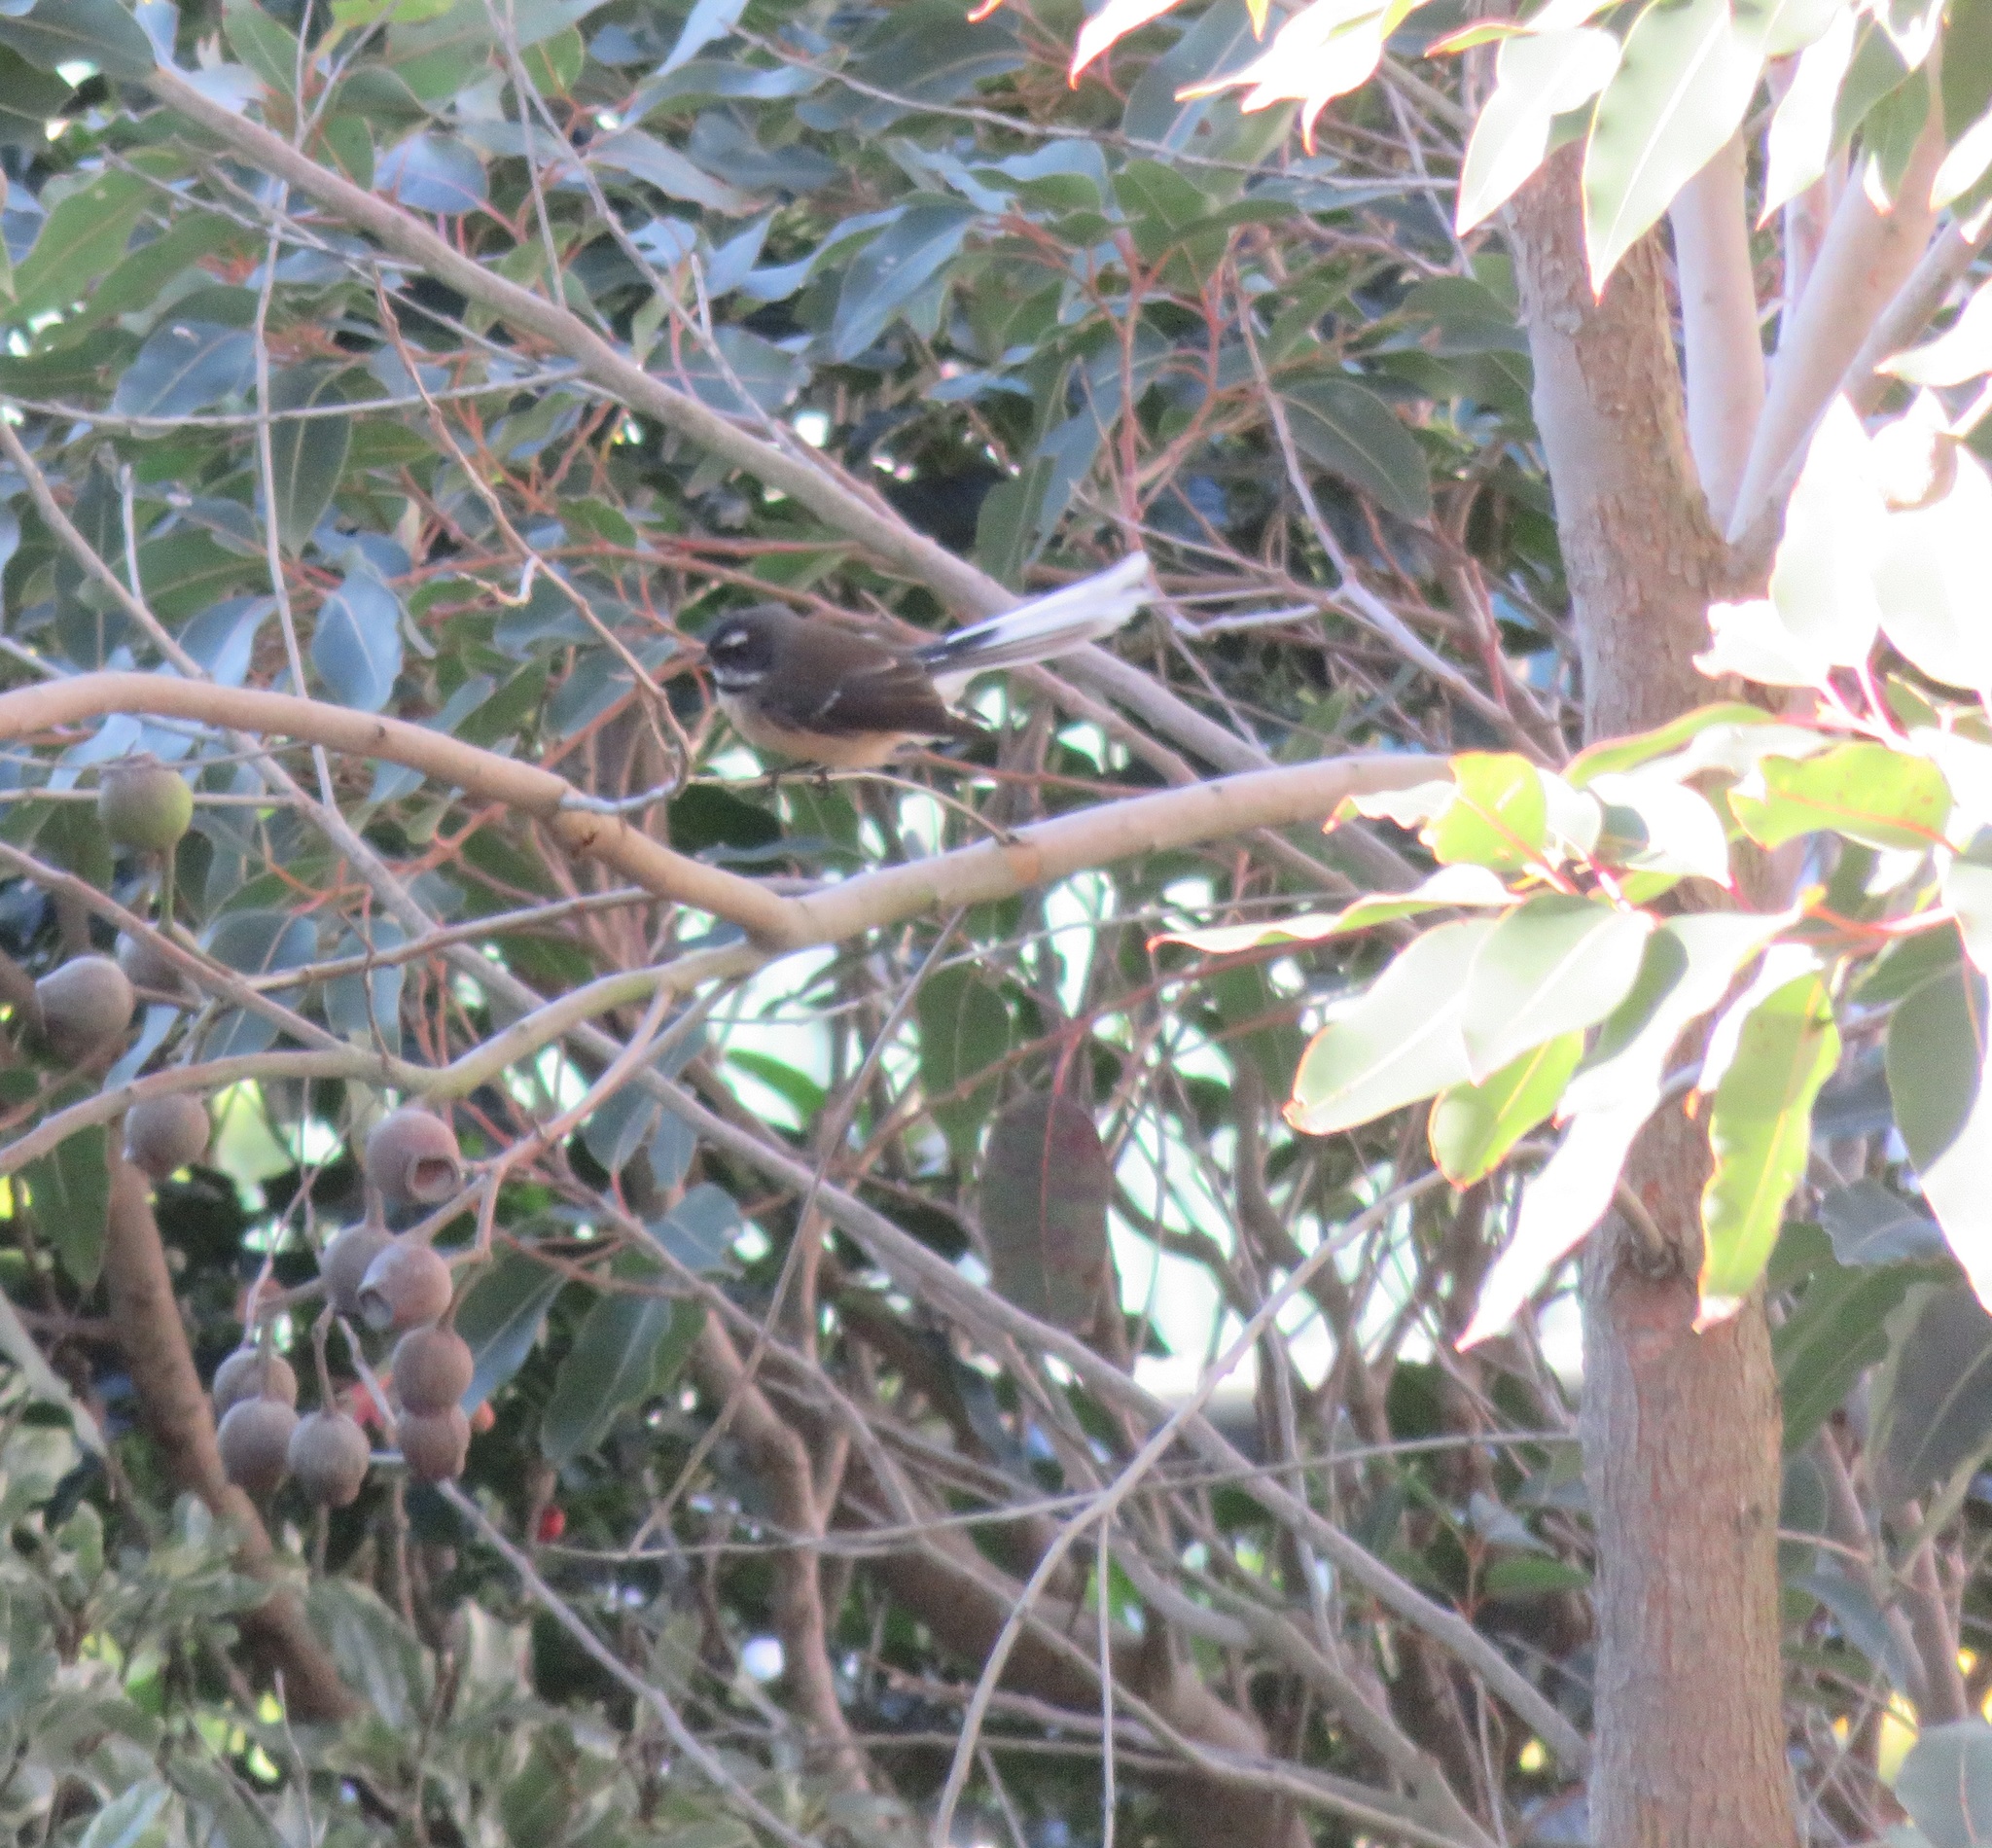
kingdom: Animalia
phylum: Chordata
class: Aves
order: Passeriformes
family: Rhipiduridae
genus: Rhipidura
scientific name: Rhipidura fuliginosa
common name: New zealand fantail
